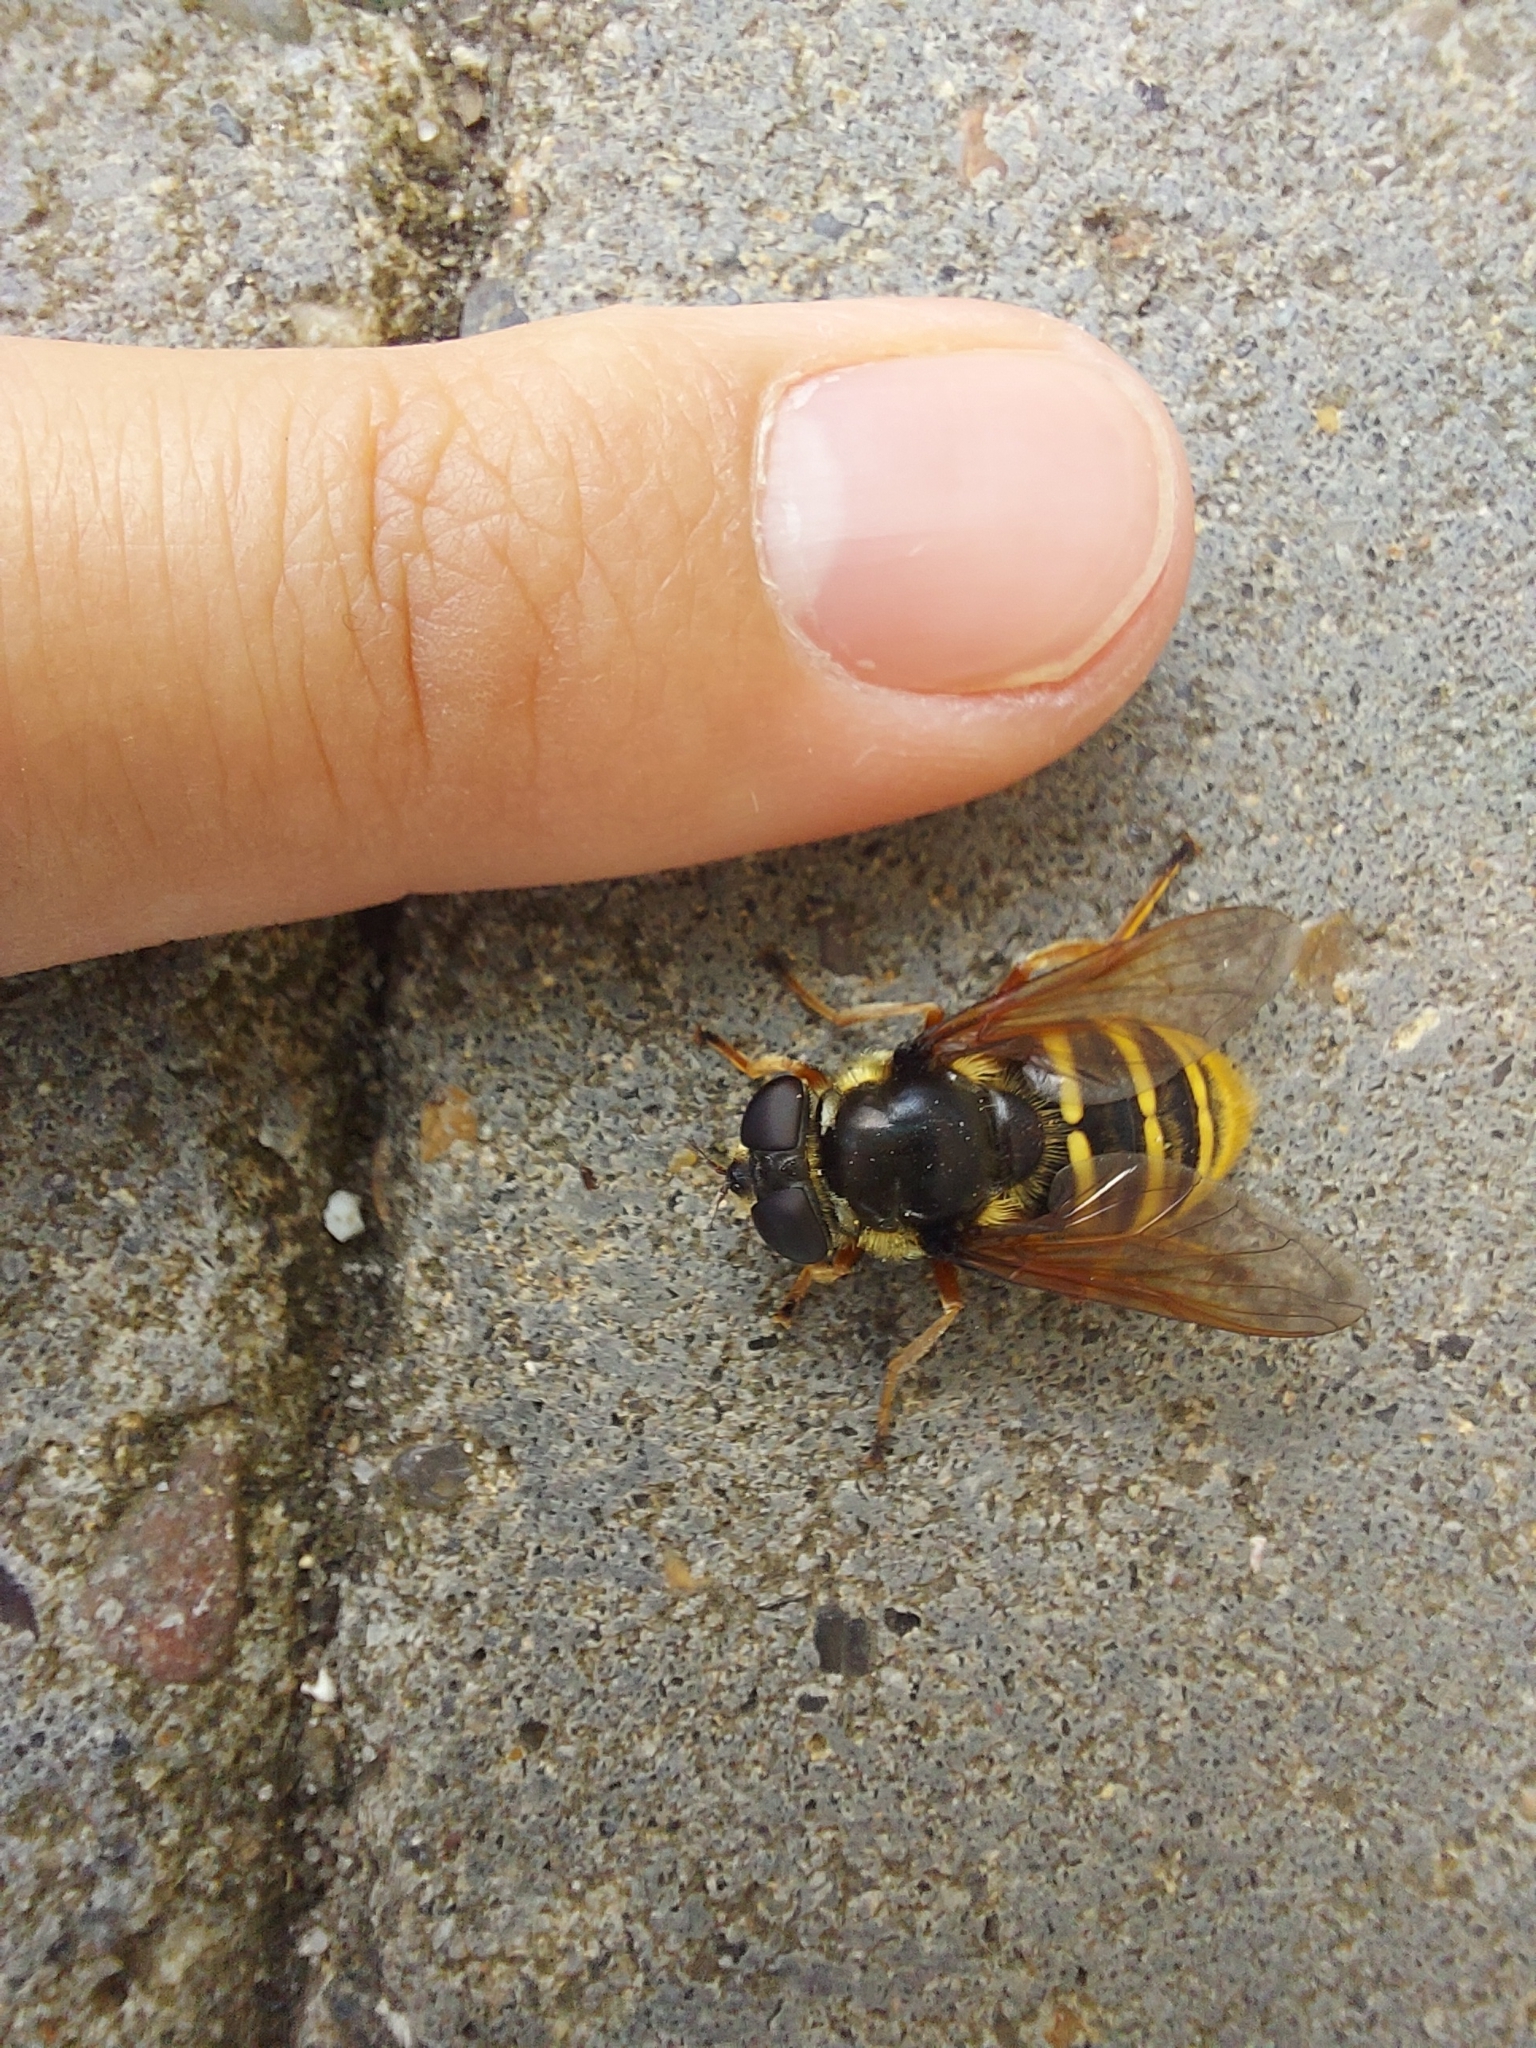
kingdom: Animalia
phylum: Arthropoda
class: Insecta
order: Diptera
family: Syrphidae
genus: Sericomyia
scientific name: Sericomyia silentis
